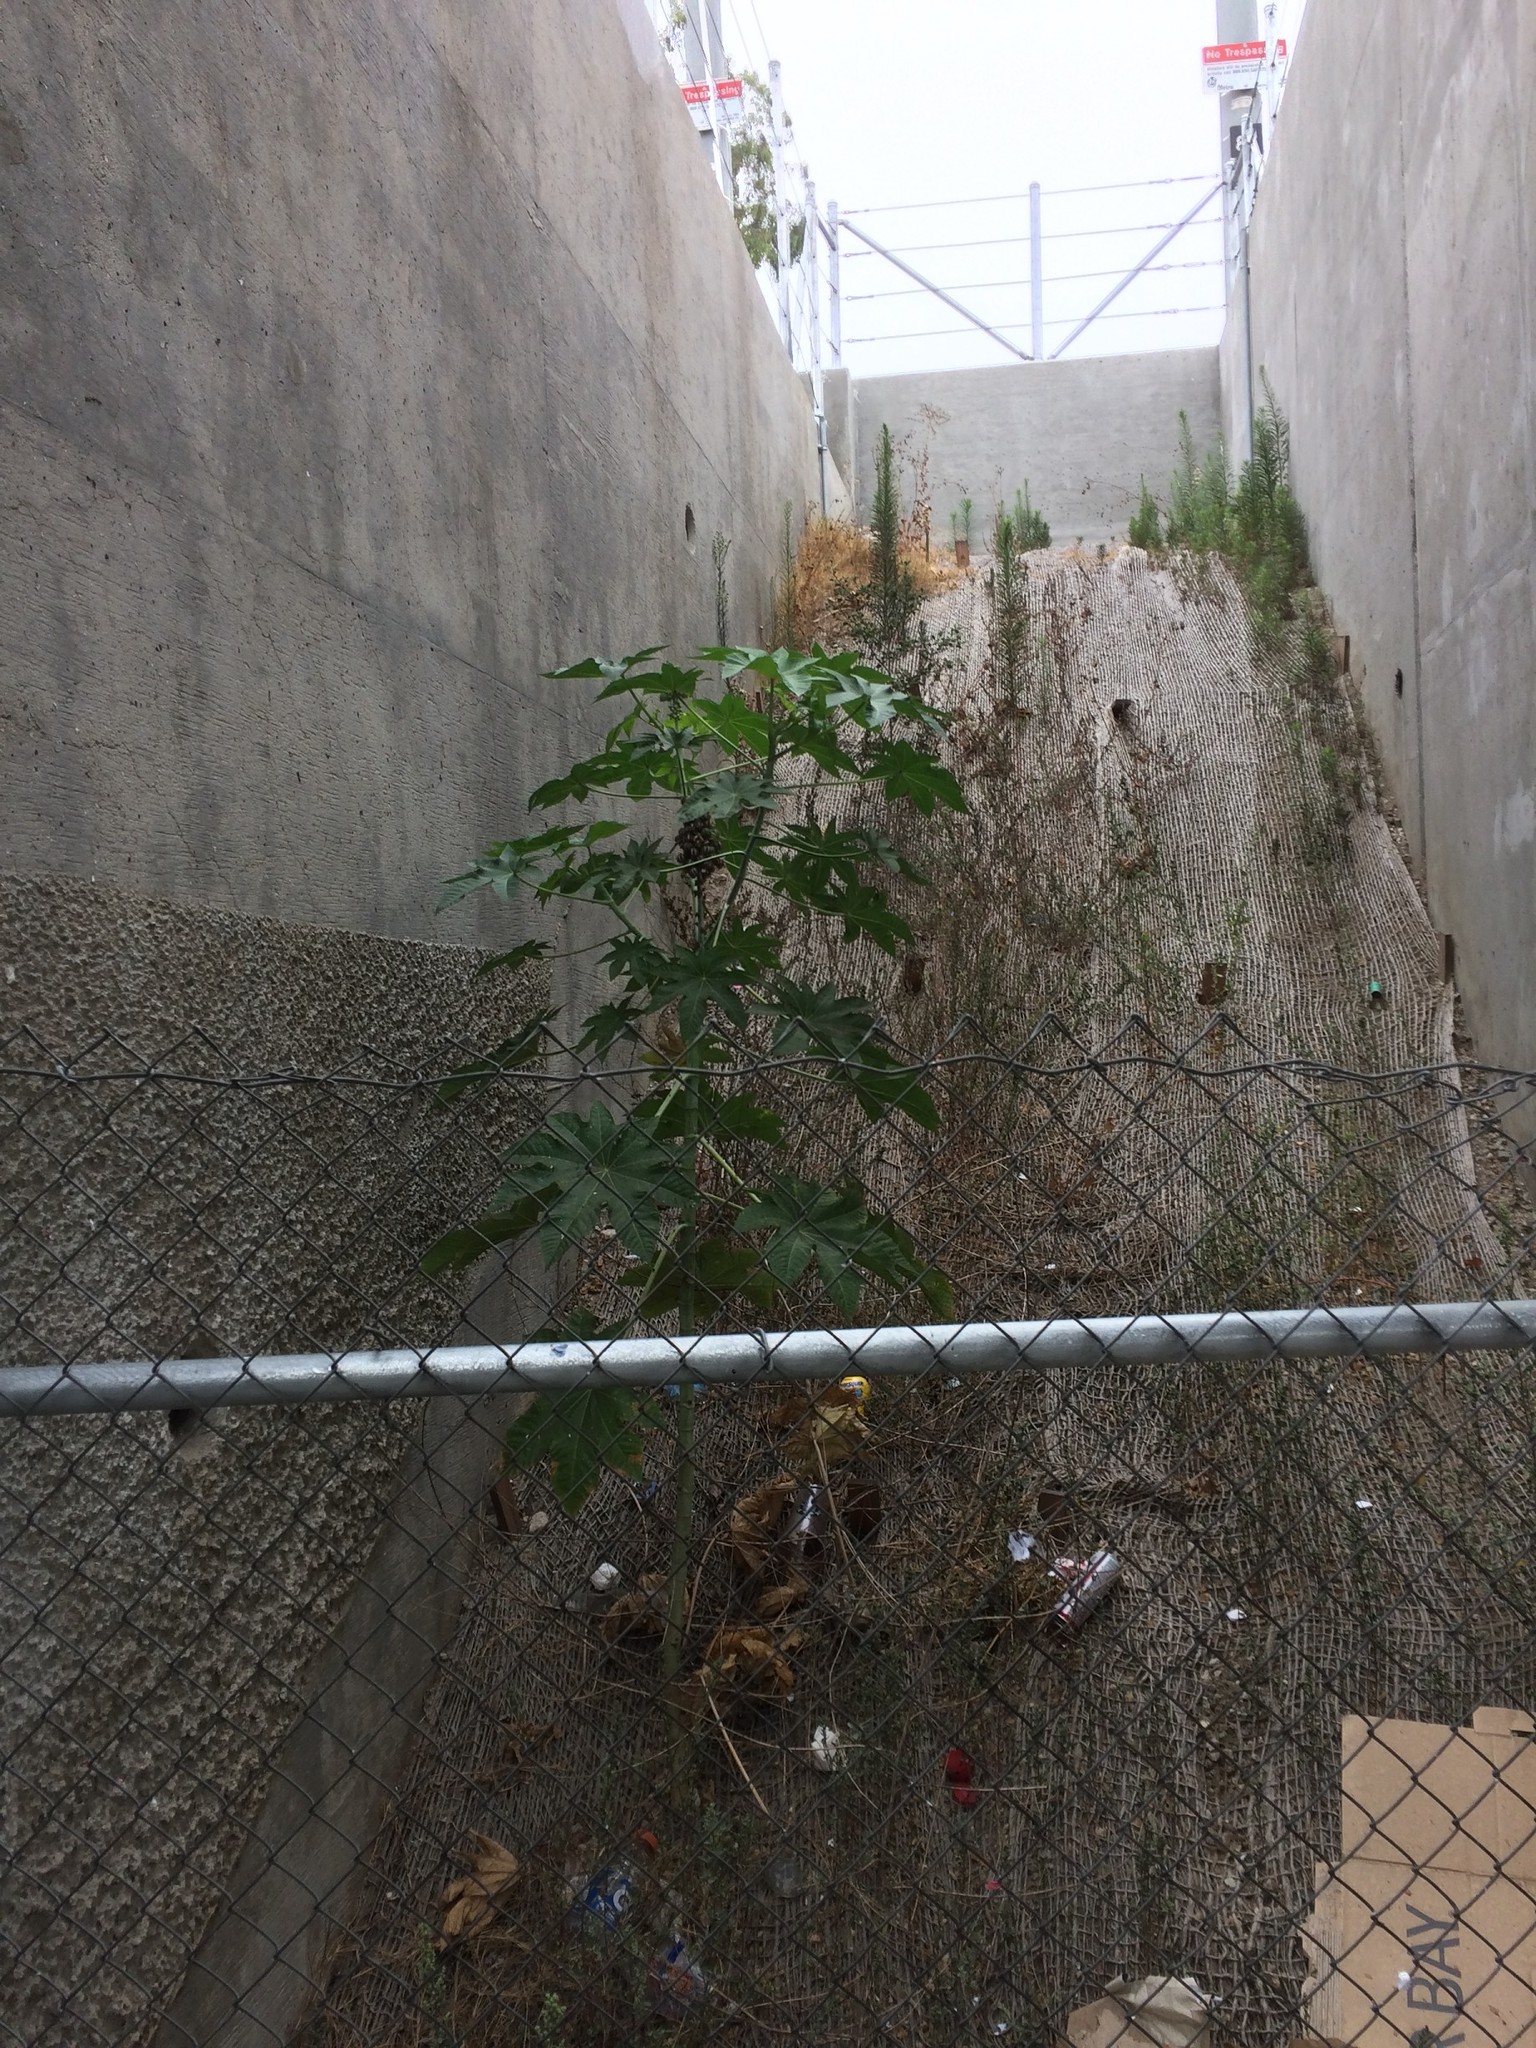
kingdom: Plantae
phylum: Tracheophyta
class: Magnoliopsida
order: Malpighiales
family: Euphorbiaceae
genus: Ricinus
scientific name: Ricinus communis
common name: Castor-oil-plant
